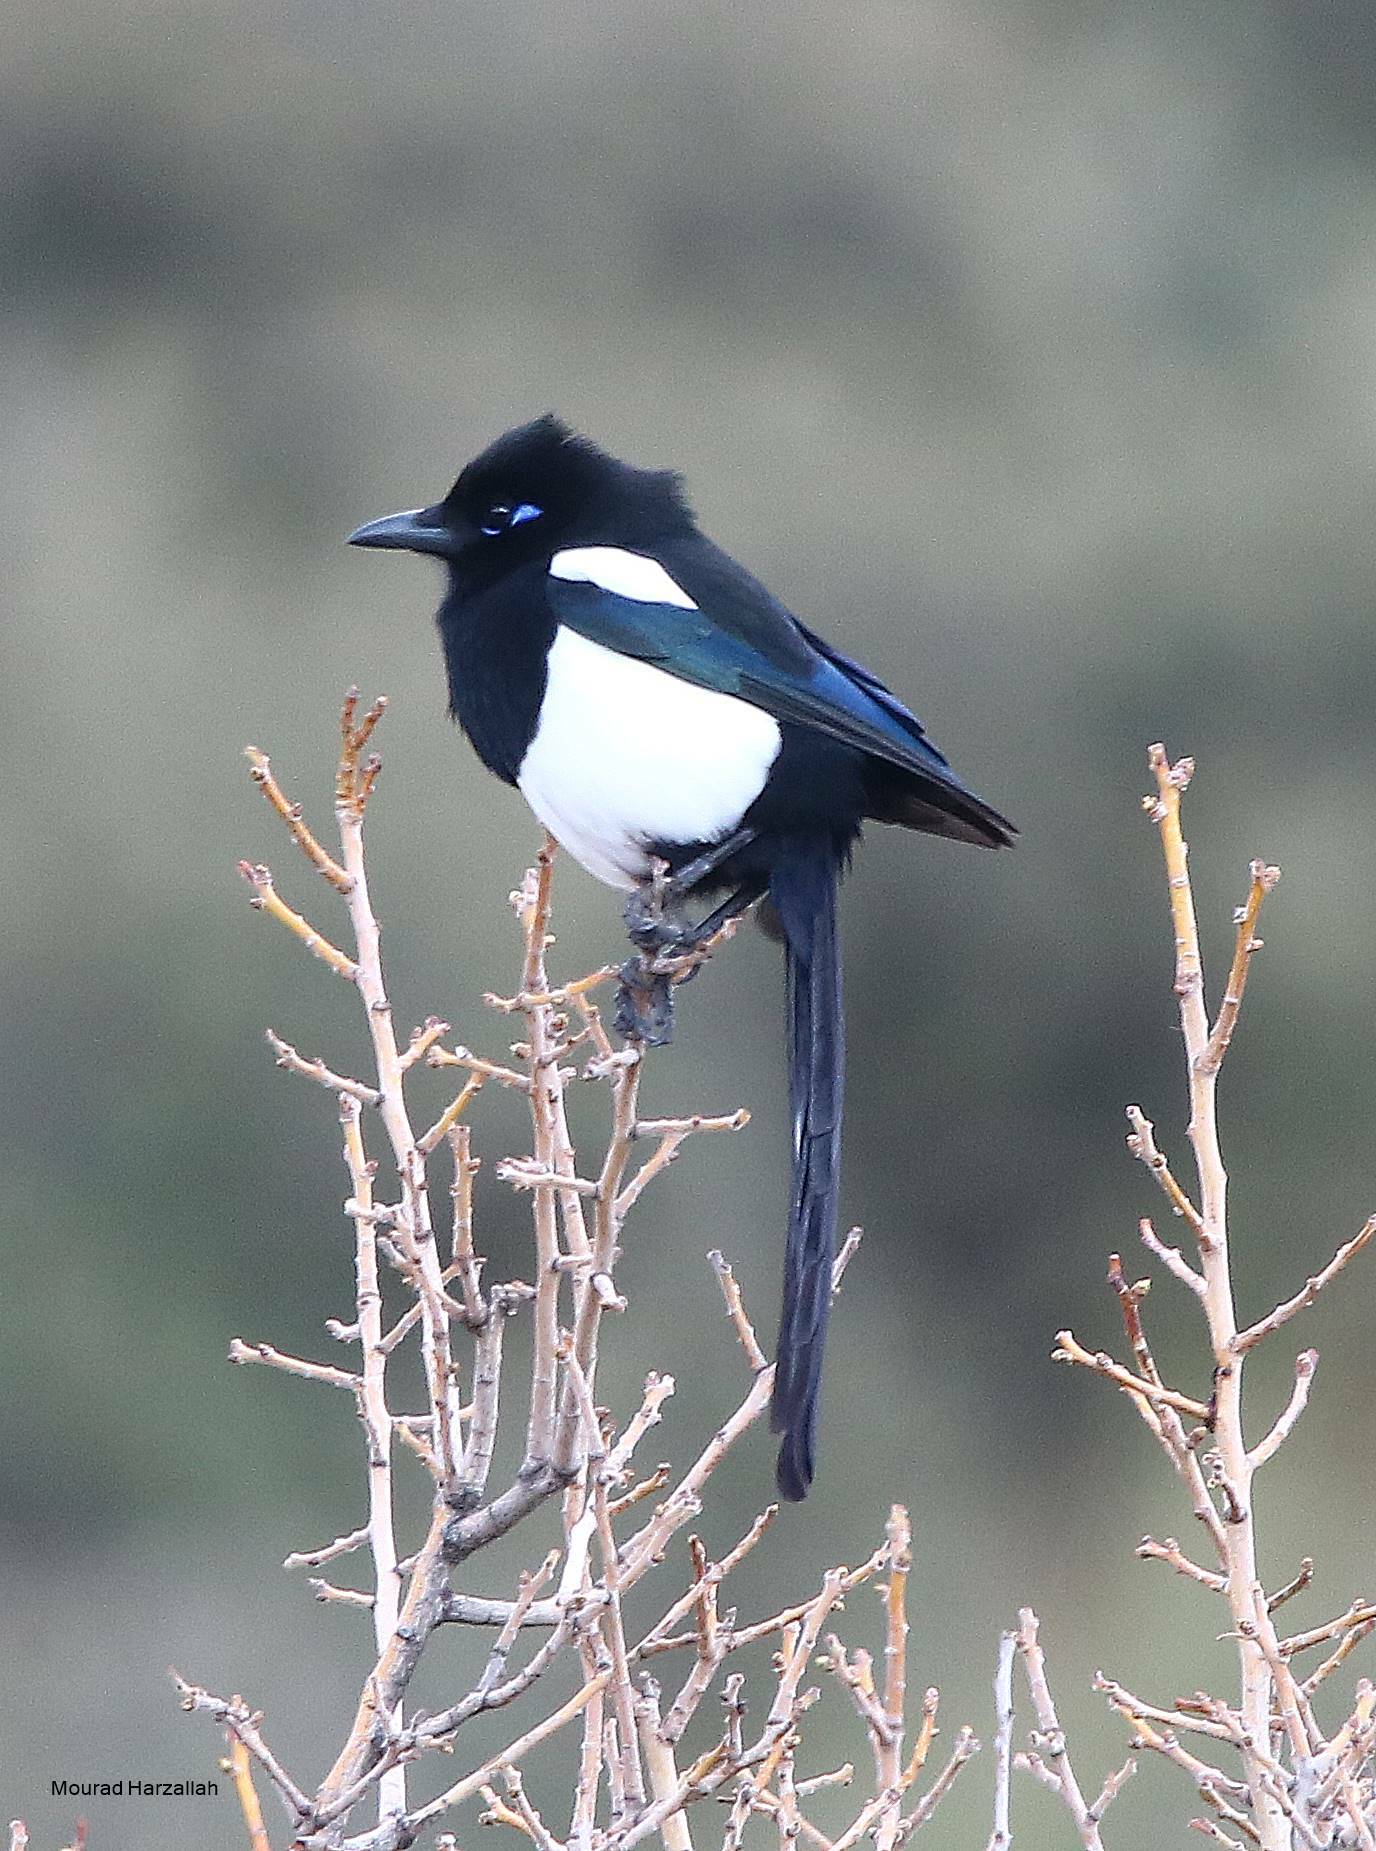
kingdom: Animalia
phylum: Chordata
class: Aves
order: Passeriformes
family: Corvidae
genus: Pica
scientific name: Pica mauritanica
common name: Maghreb magpie
